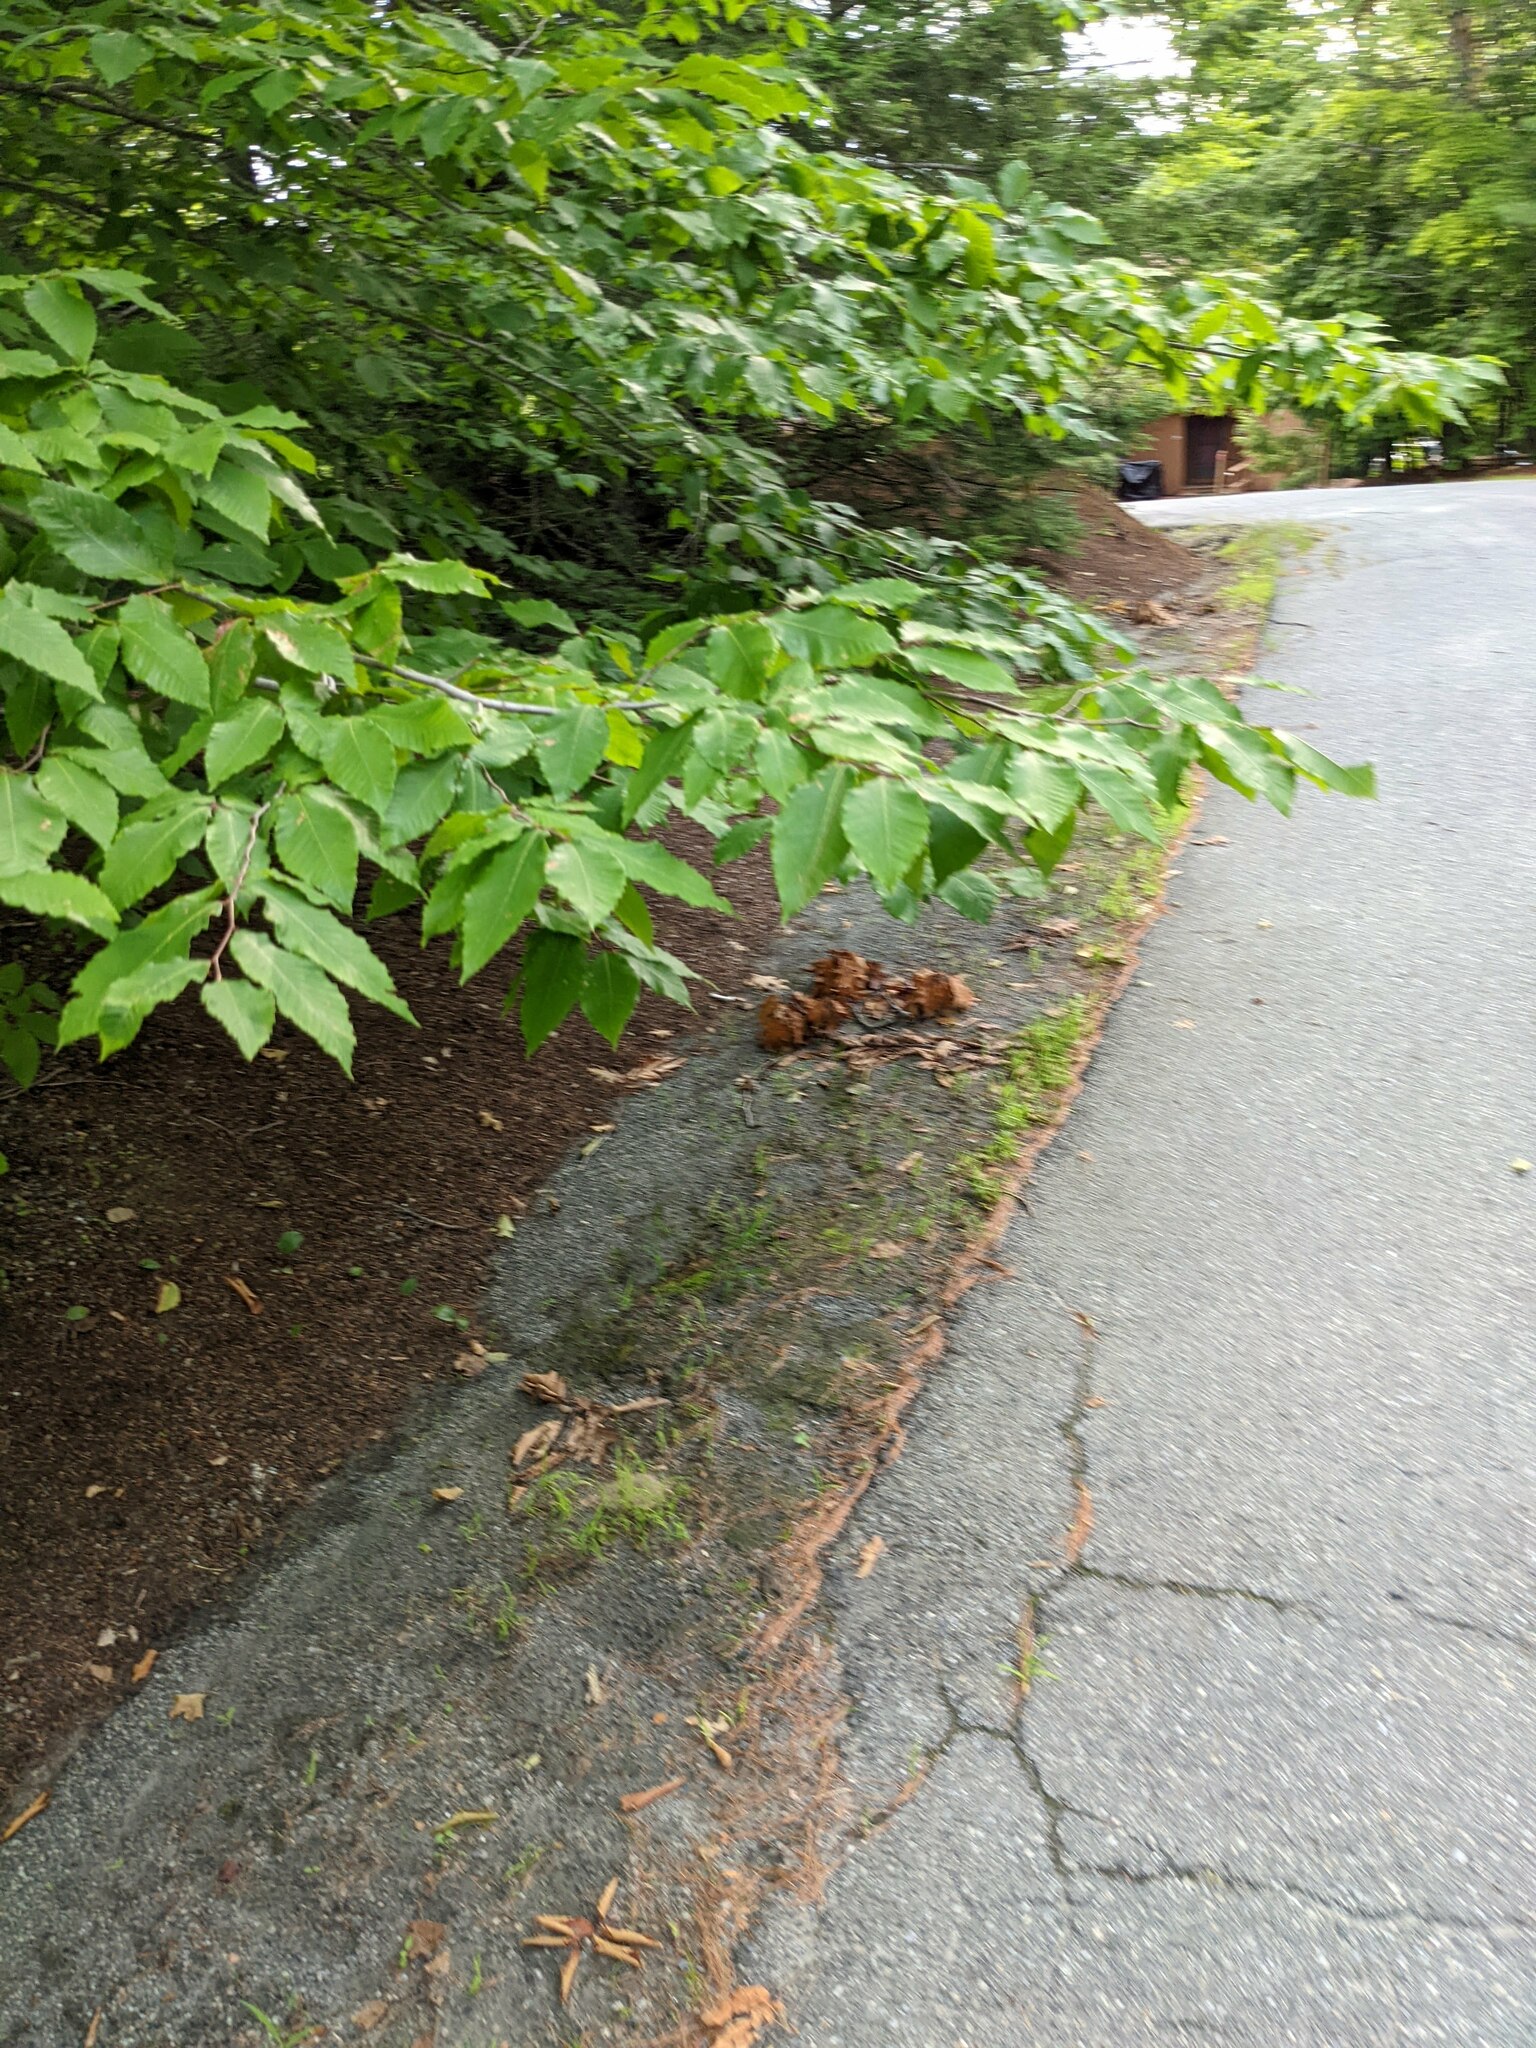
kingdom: Plantae
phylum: Tracheophyta
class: Magnoliopsida
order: Fagales
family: Fagaceae
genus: Fagus
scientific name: Fagus grandifolia
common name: American beech
